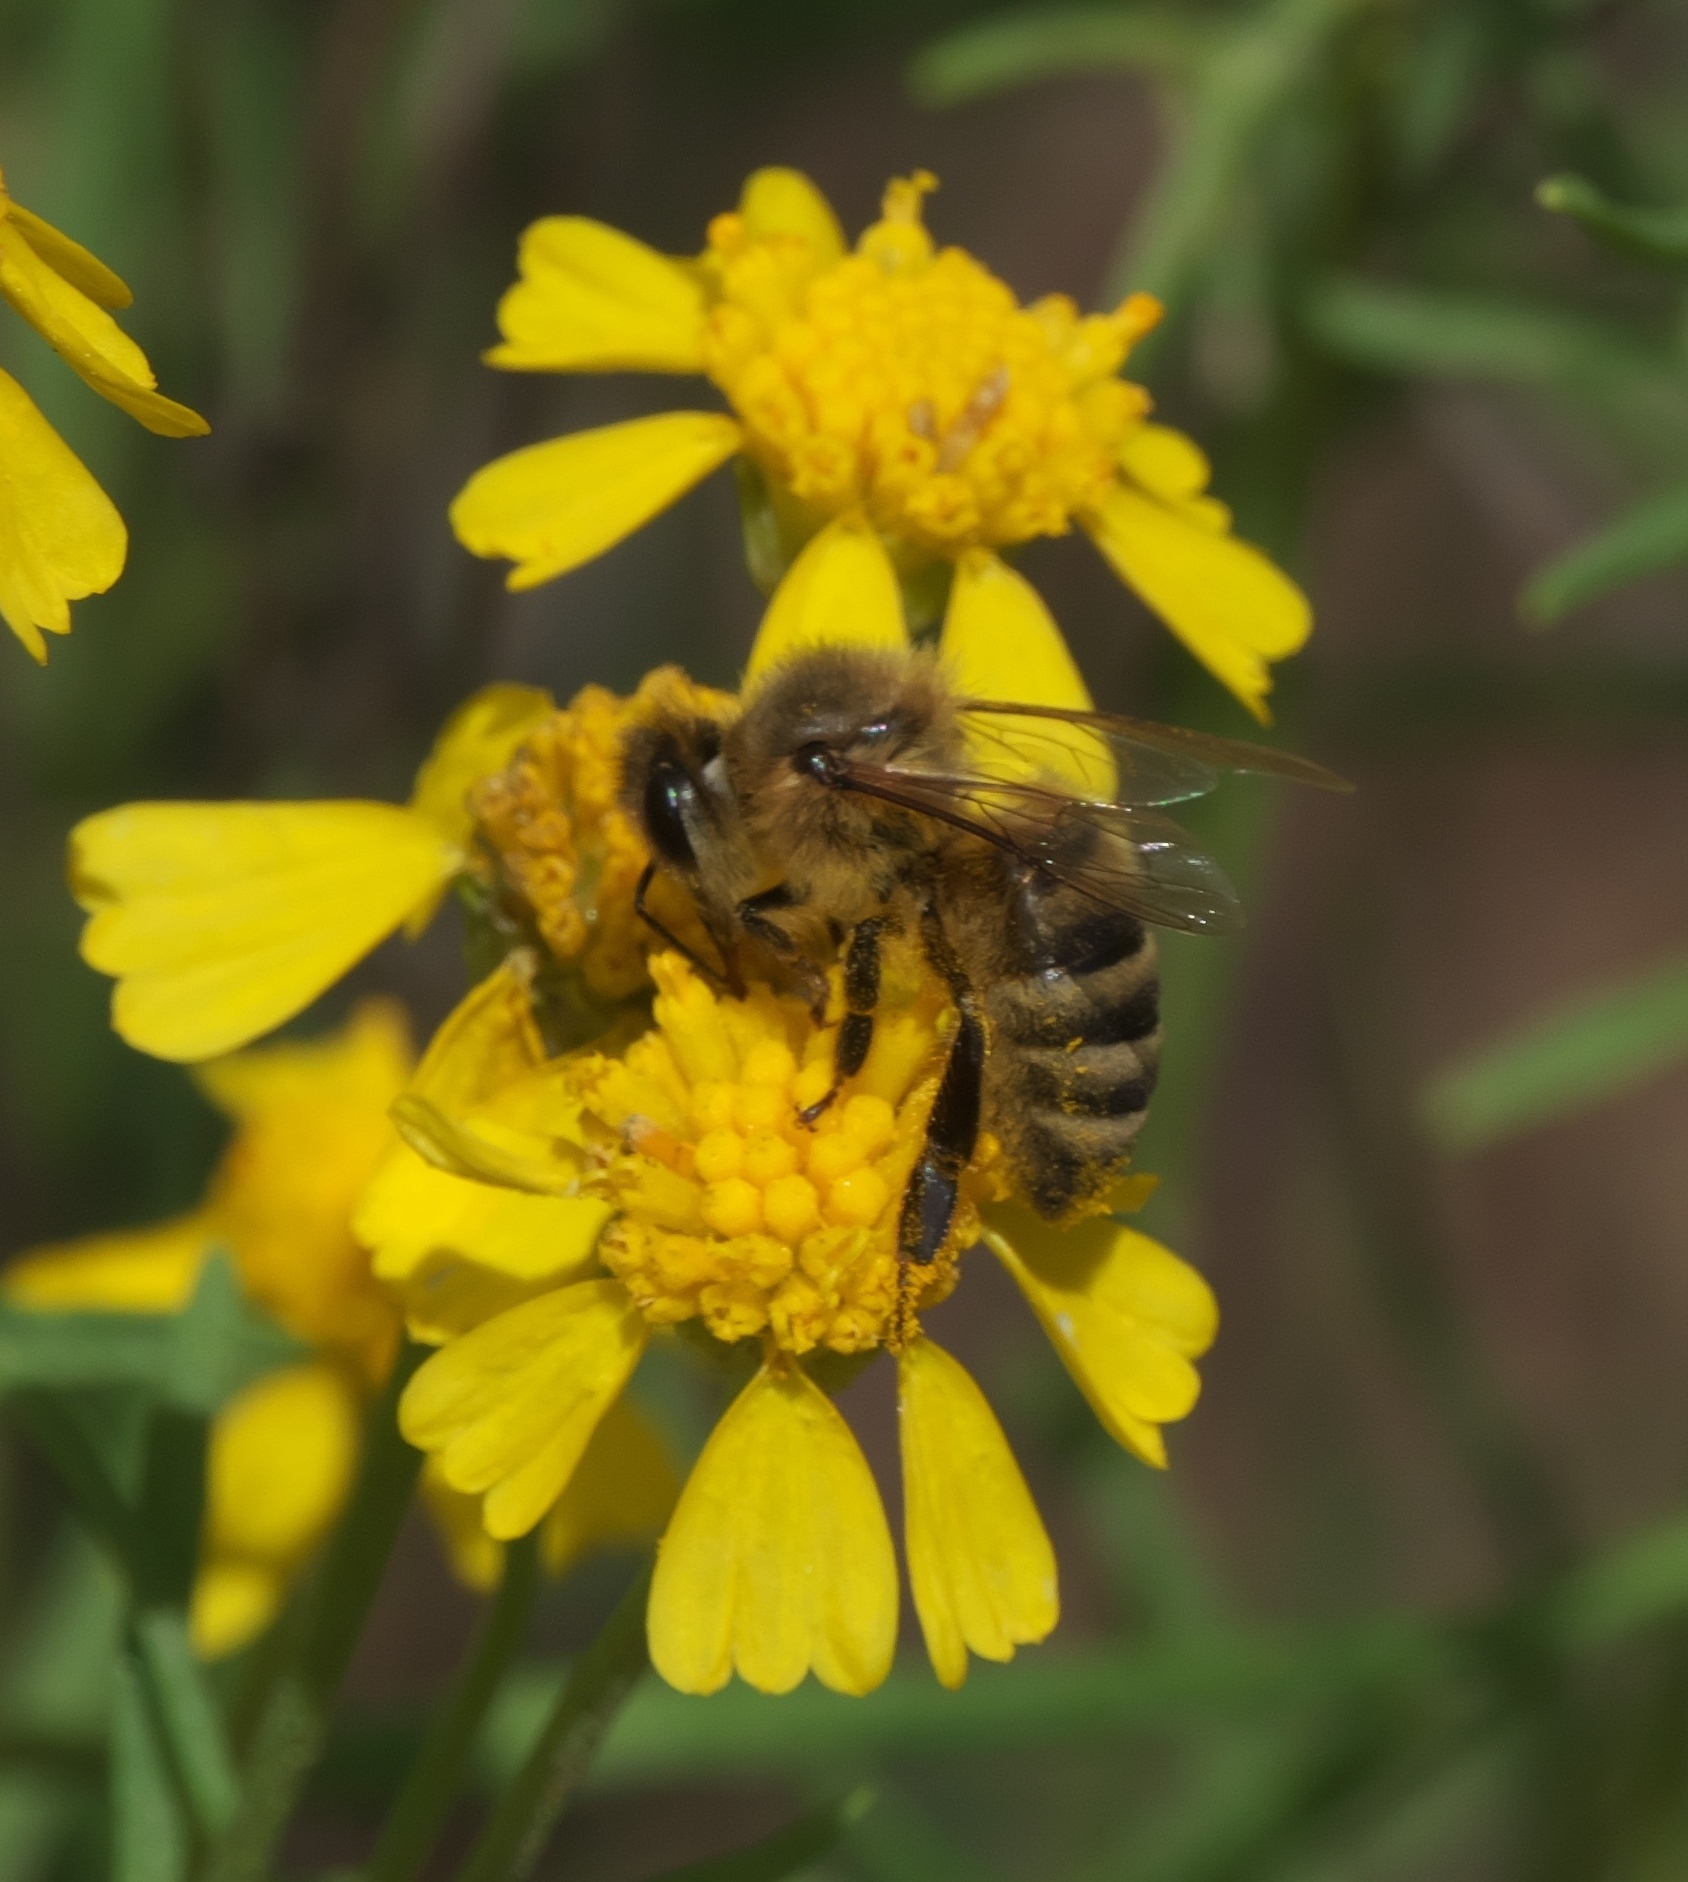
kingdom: Animalia
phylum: Arthropoda
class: Insecta
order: Hymenoptera
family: Apidae
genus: Apis
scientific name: Apis mellifera
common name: Honey bee
